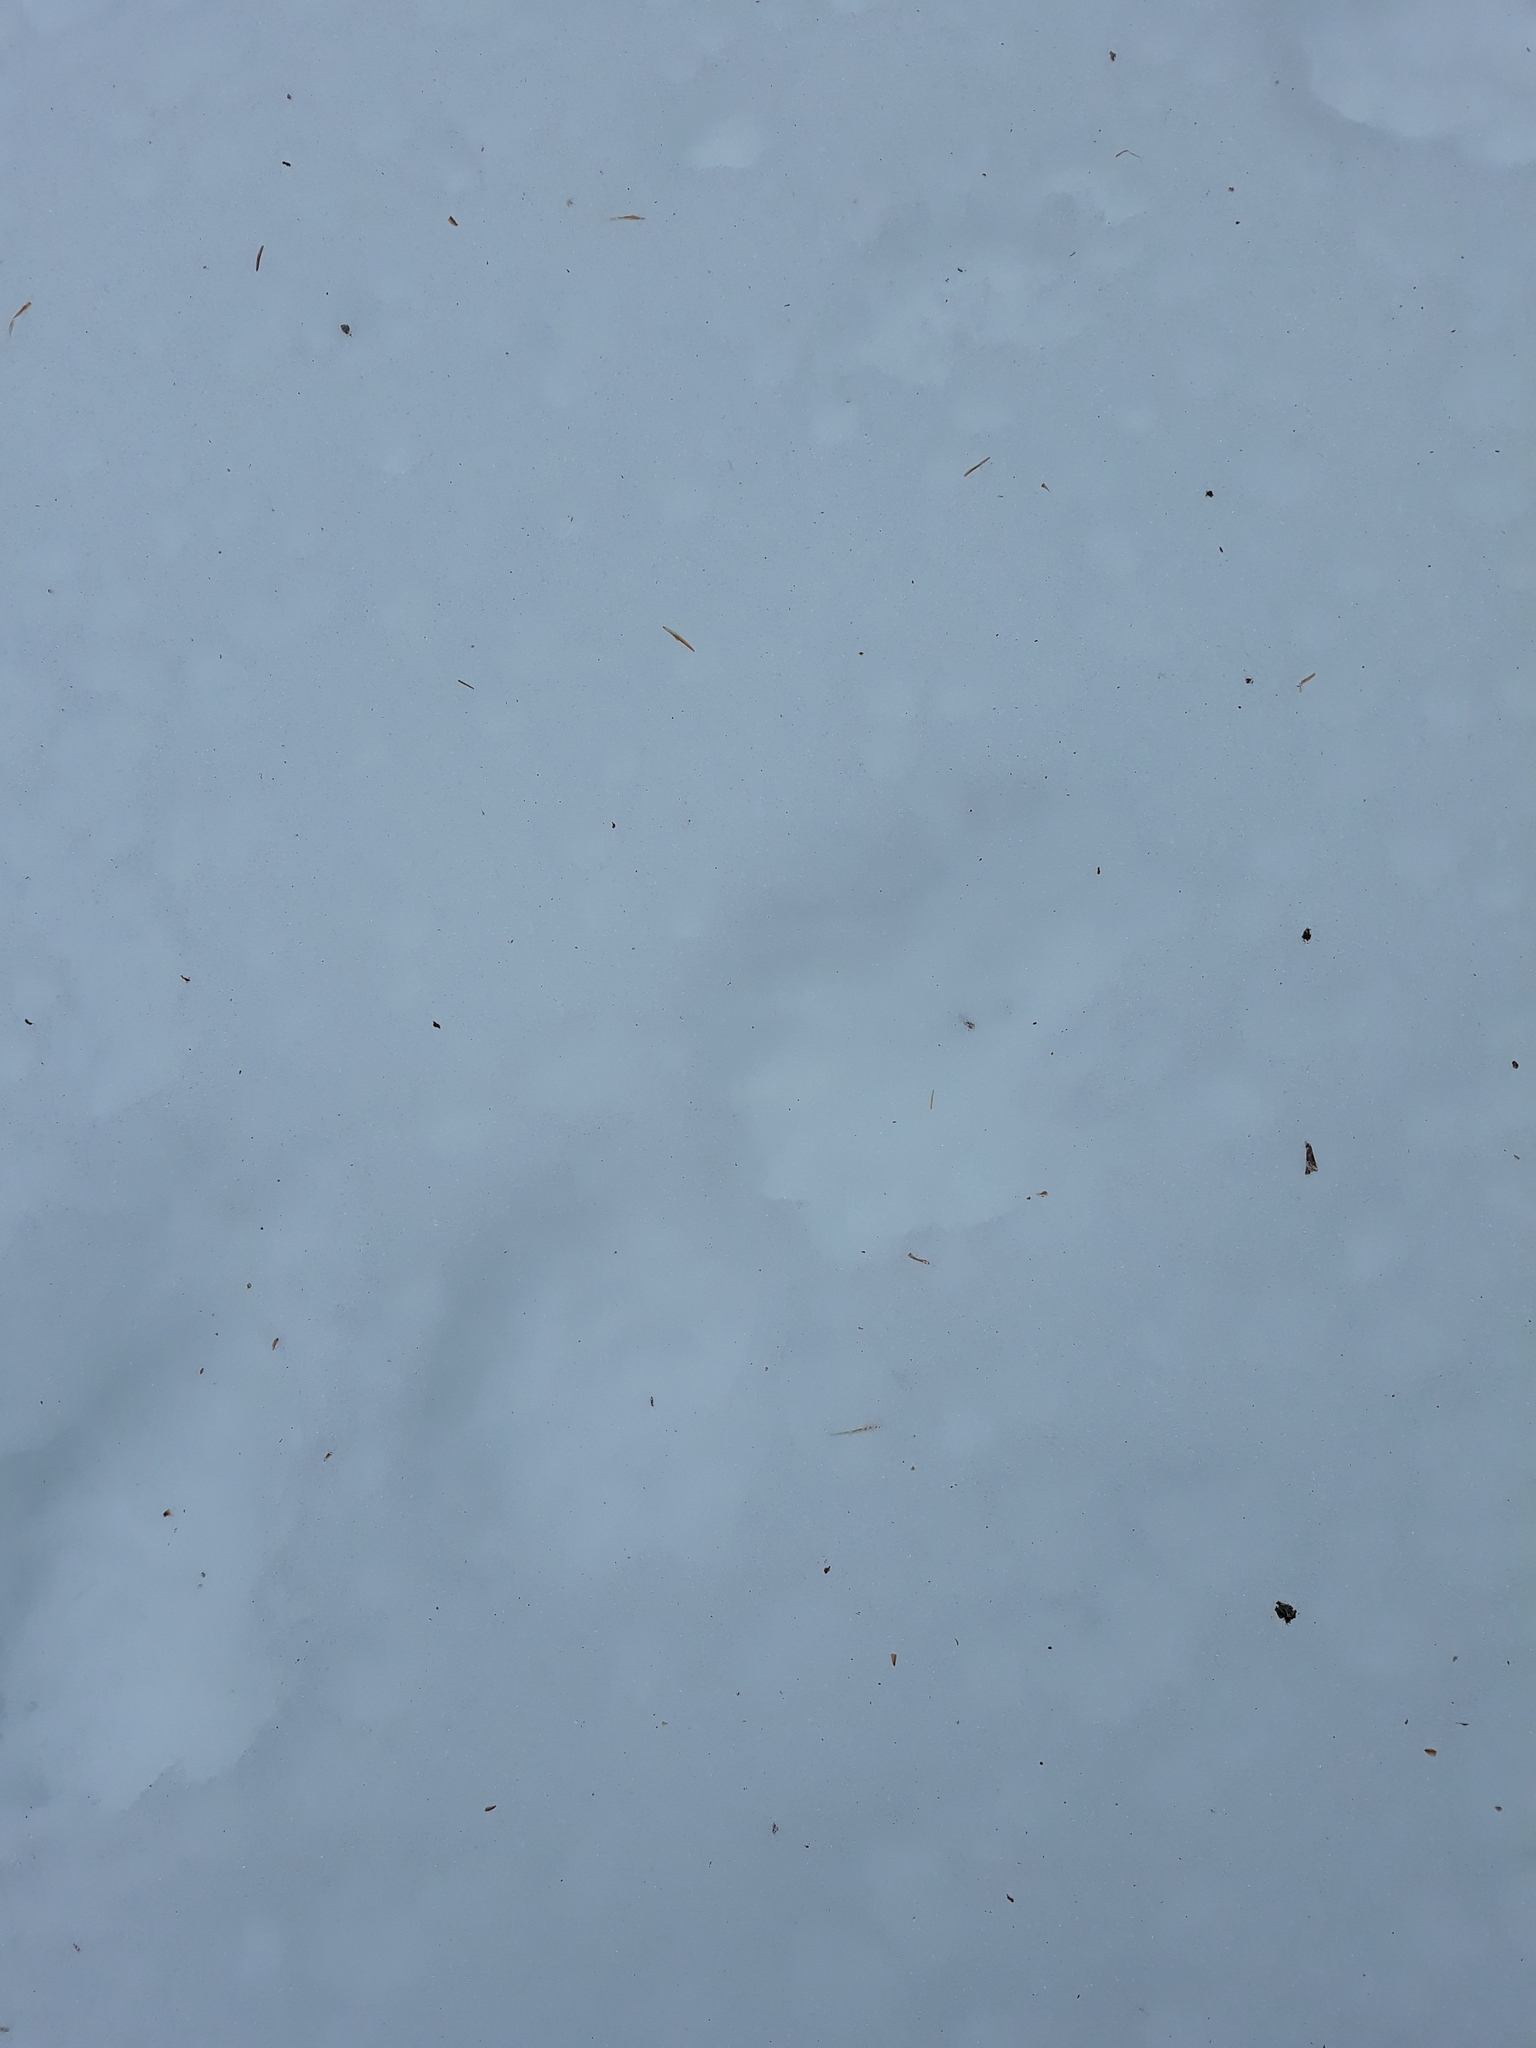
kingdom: Animalia
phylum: Chordata
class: Mammalia
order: Carnivora
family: Felidae
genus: Lynx
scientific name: Lynx rufus
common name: Bobcat
